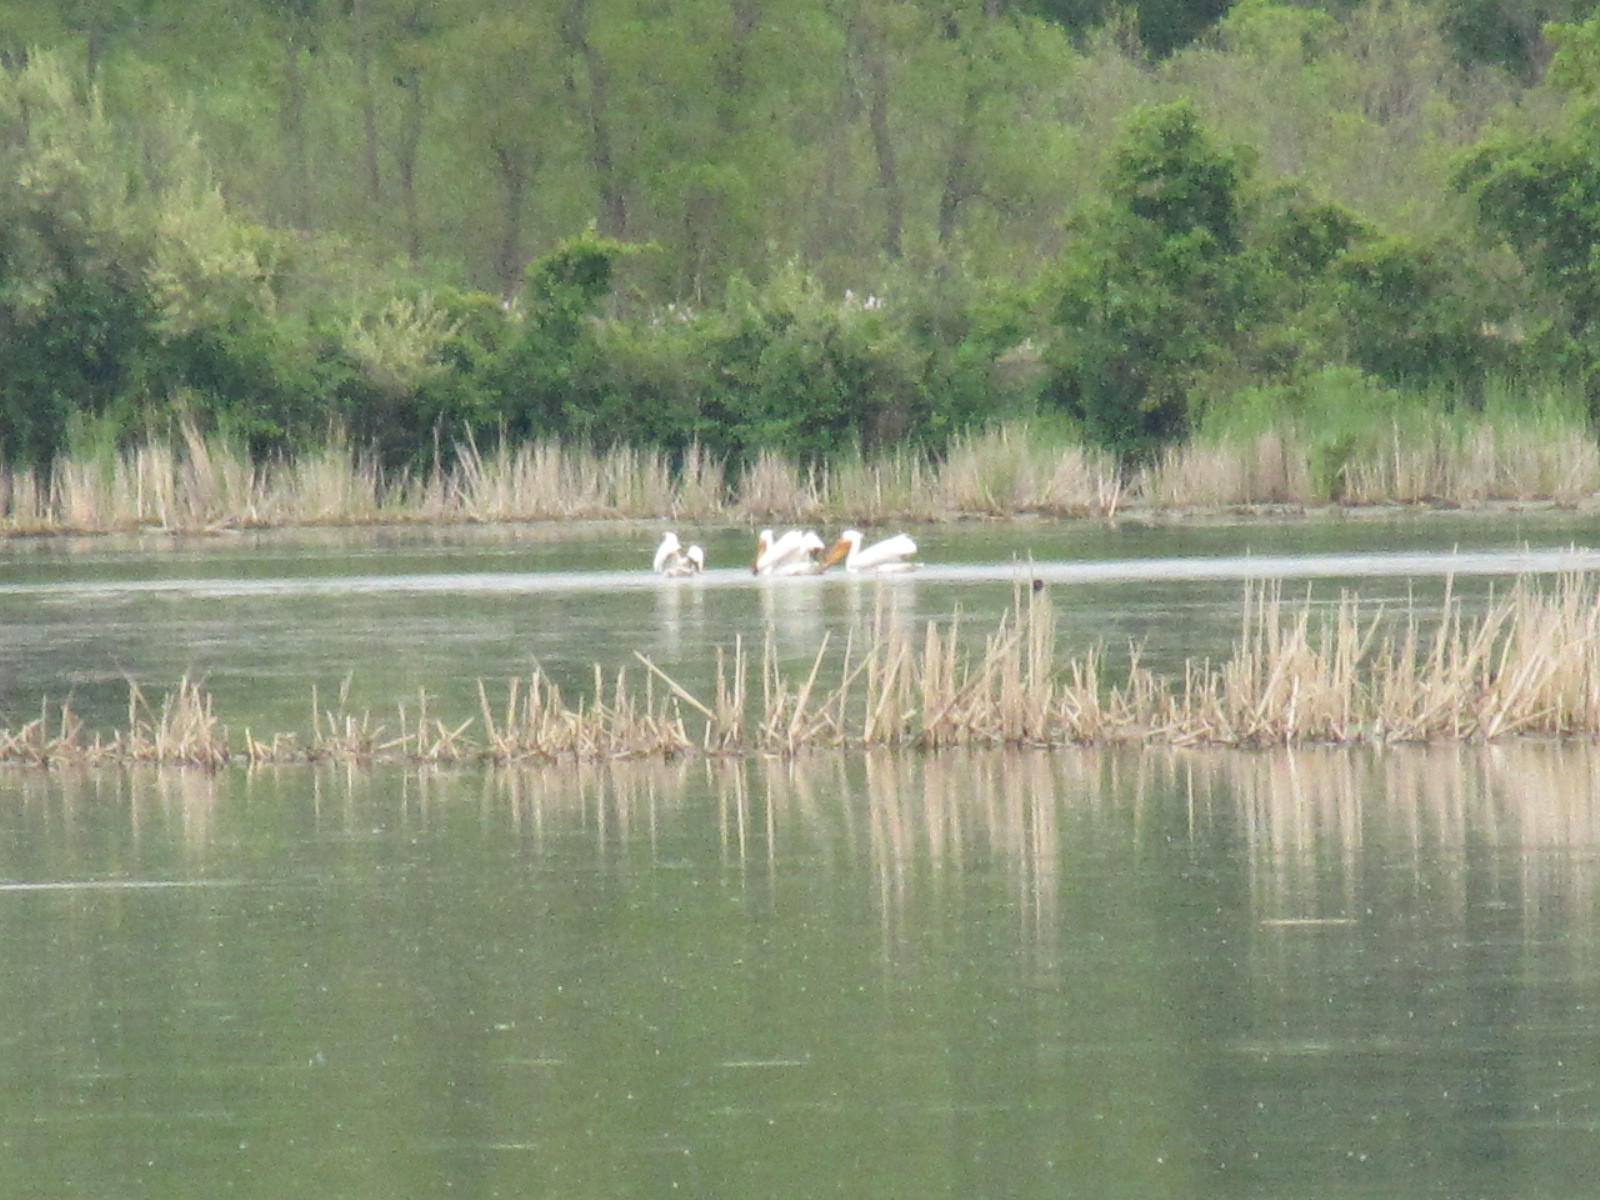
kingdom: Animalia
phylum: Chordata
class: Aves
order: Pelecaniformes
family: Pelecanidae
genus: Pelecanus
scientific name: Pelecanus erythrorhynchos
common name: American white pelican
